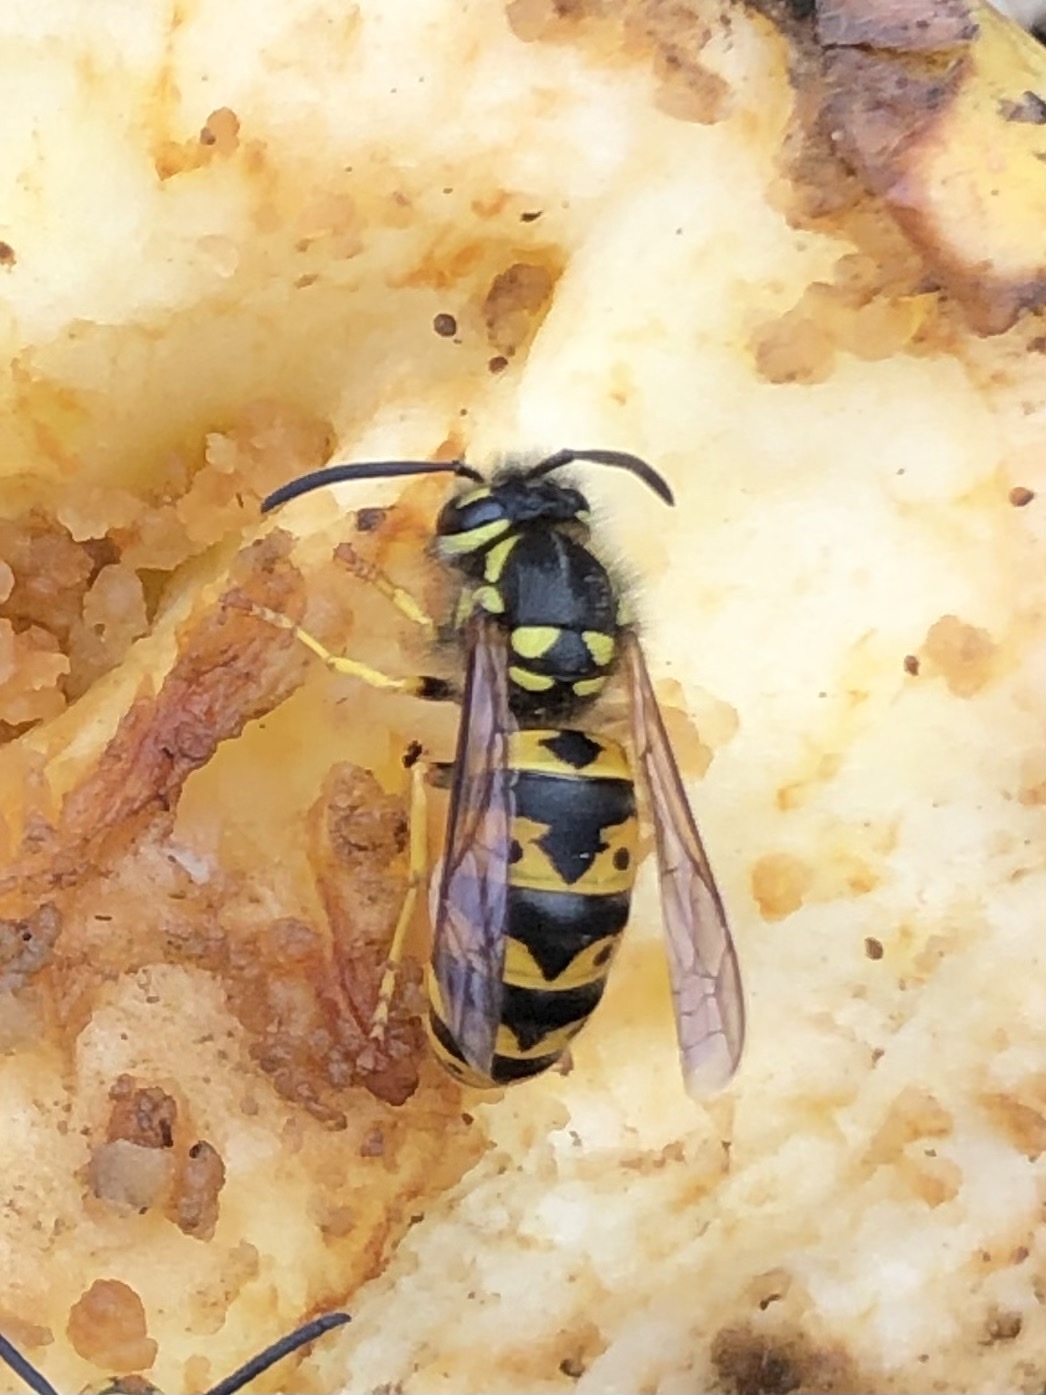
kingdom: Animalia
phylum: Arthropoda
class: Insecta
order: Hymenoptera
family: Vespidae
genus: Vespula
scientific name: Vespula germanica
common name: German wasp
